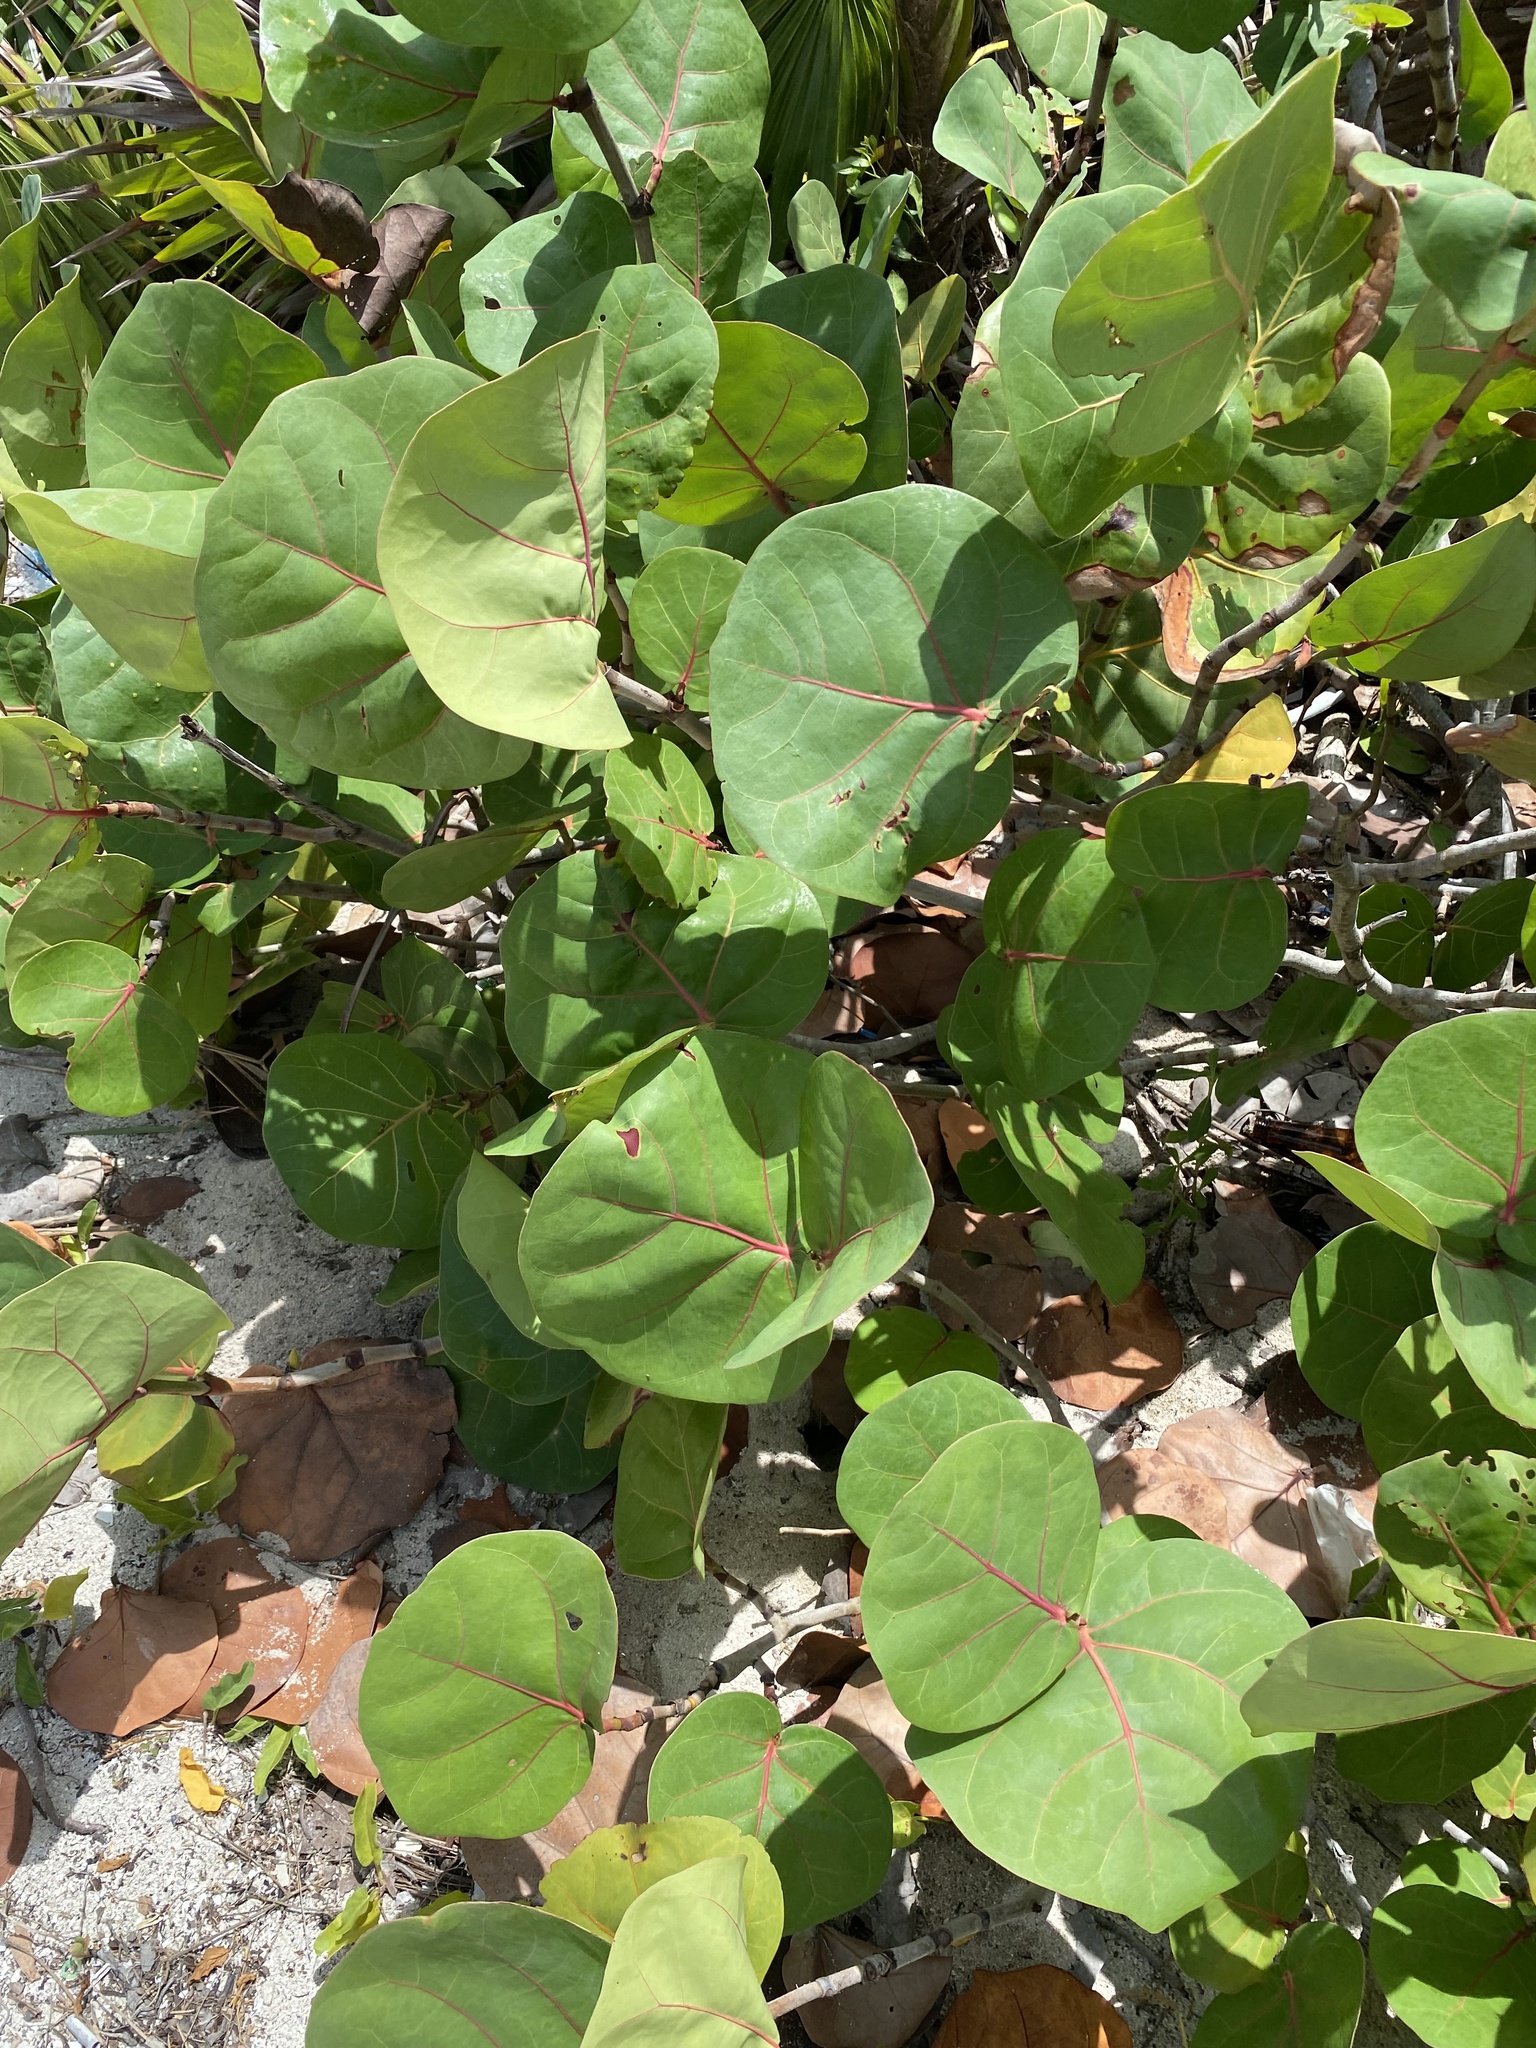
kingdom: Plantae
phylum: Tracheophyta
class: Magnoliopsida
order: Caryophyllales
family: Polygonaceae
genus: Coccoloba
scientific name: Coccoloba uvifera
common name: Seagrape
